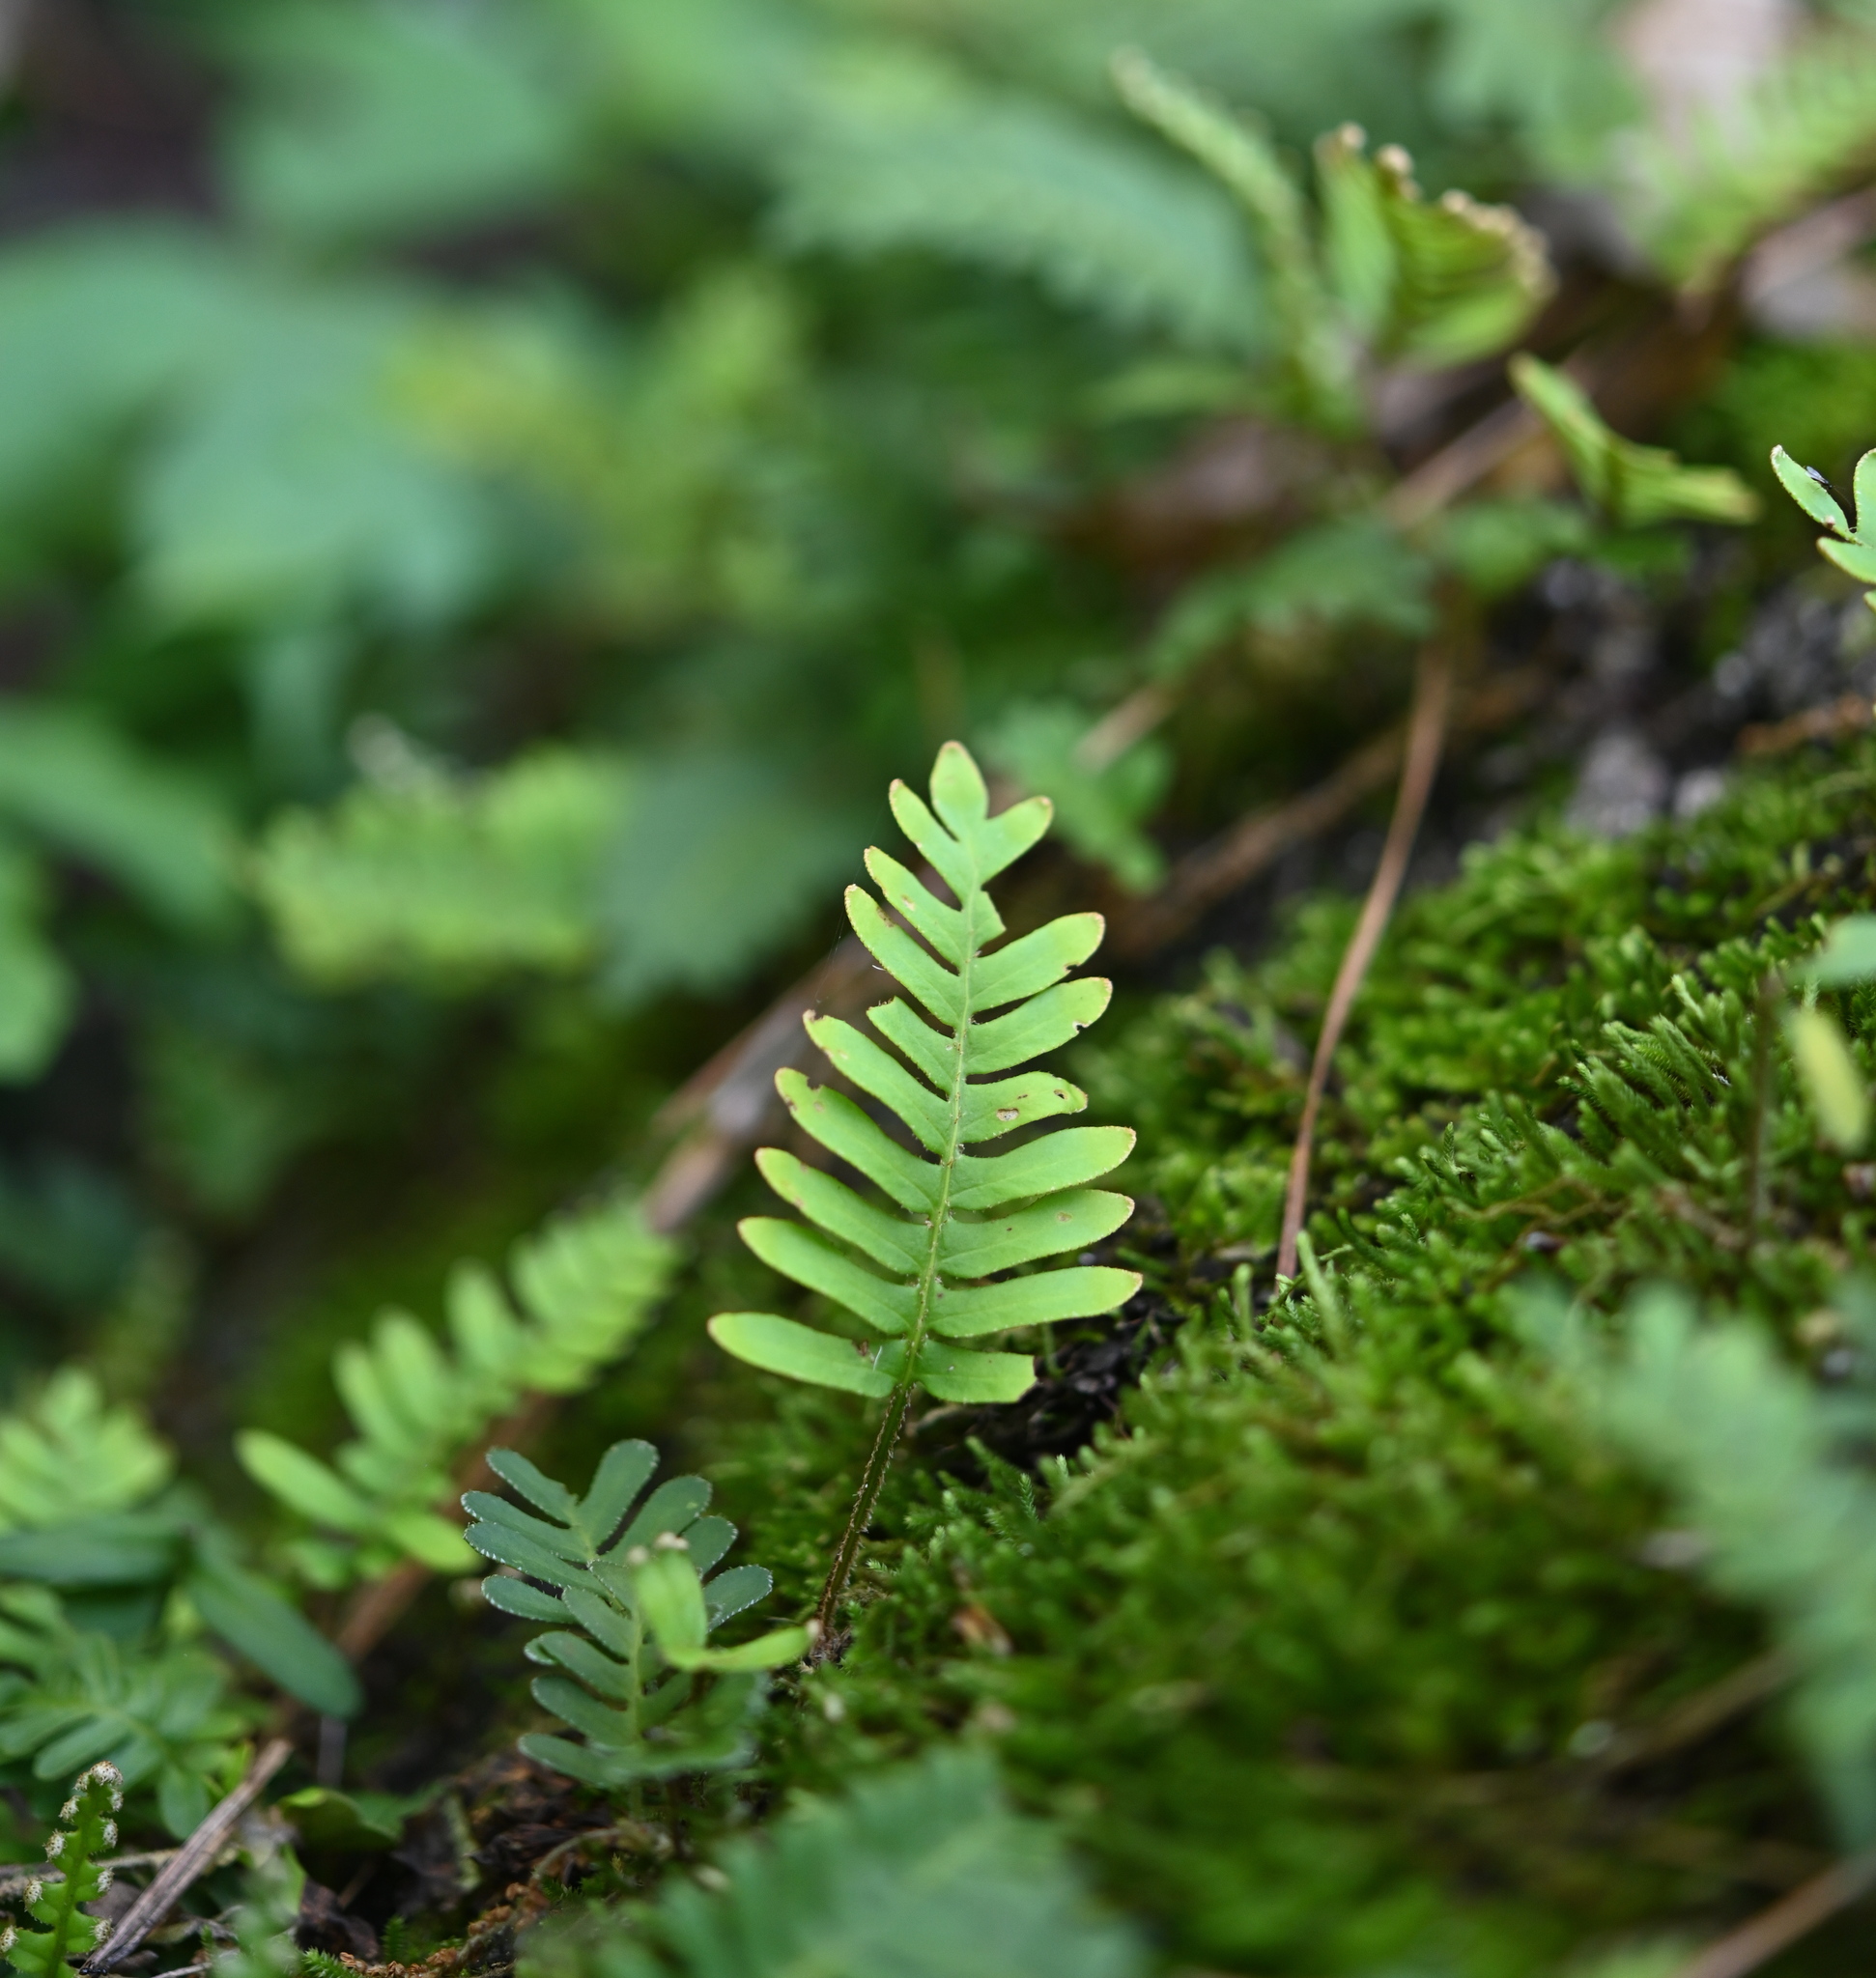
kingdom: Plantae
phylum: Tracheophyta
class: Polypodiopsida
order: Polypodiales
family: Polypodiaceae
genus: Pleopeltis
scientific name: Pleopeltis michauxiana
